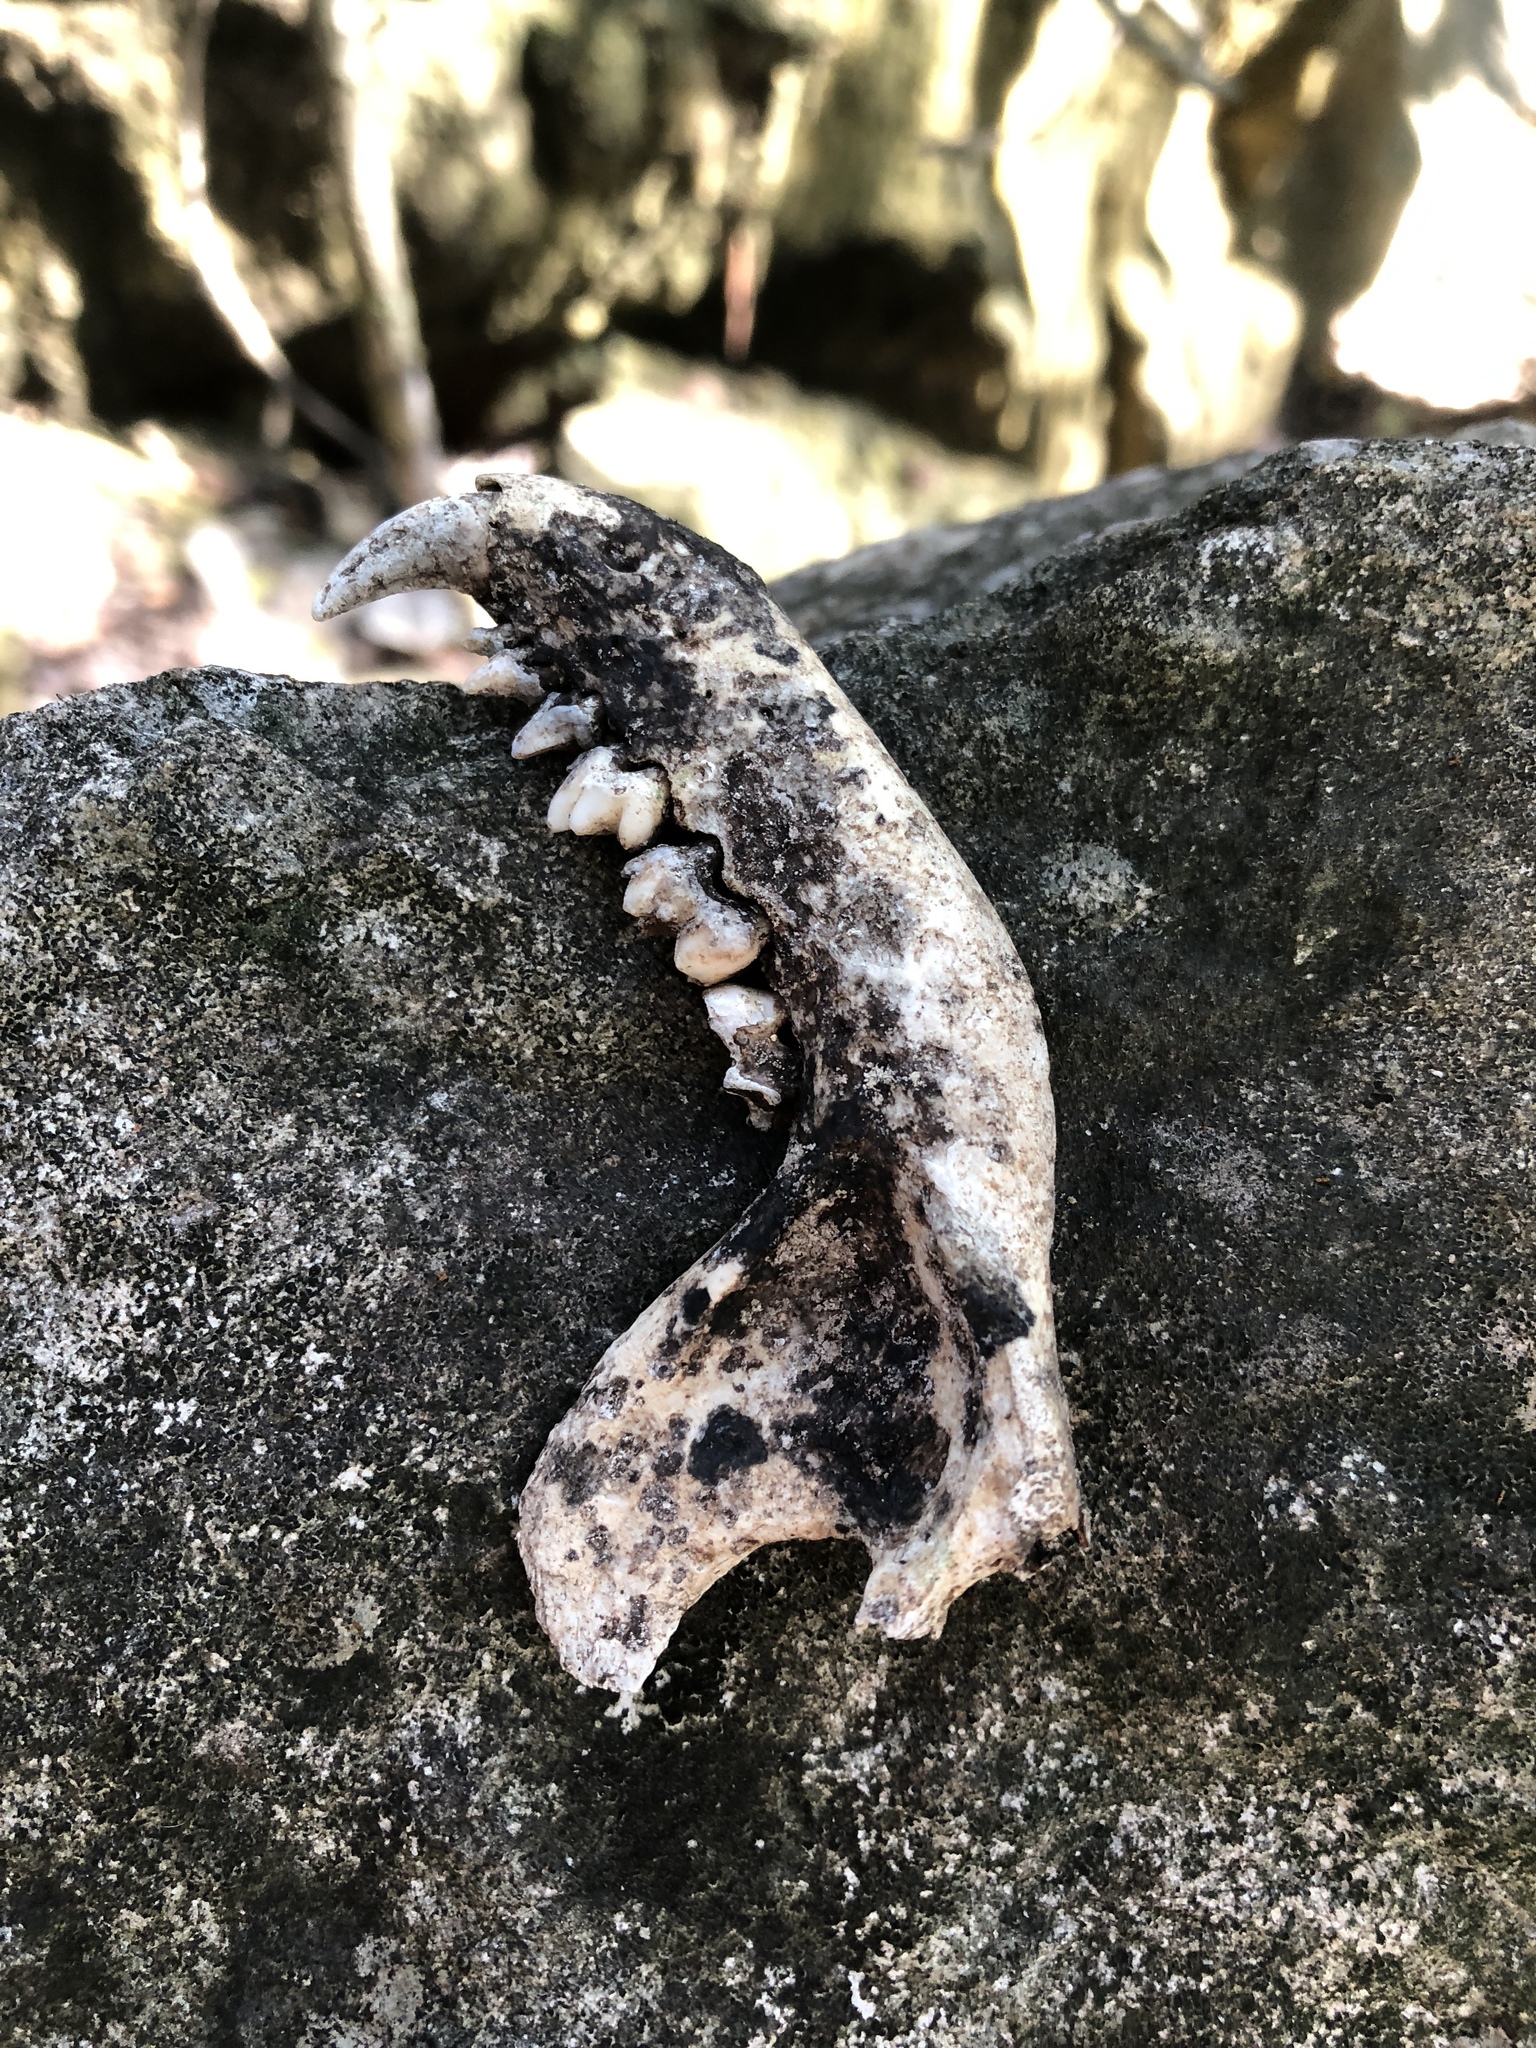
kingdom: Animalia
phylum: Chordata
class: Mammalia
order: Carnivora
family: Procyonidae
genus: Procyon
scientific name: Procyon lotor
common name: Raccoon
